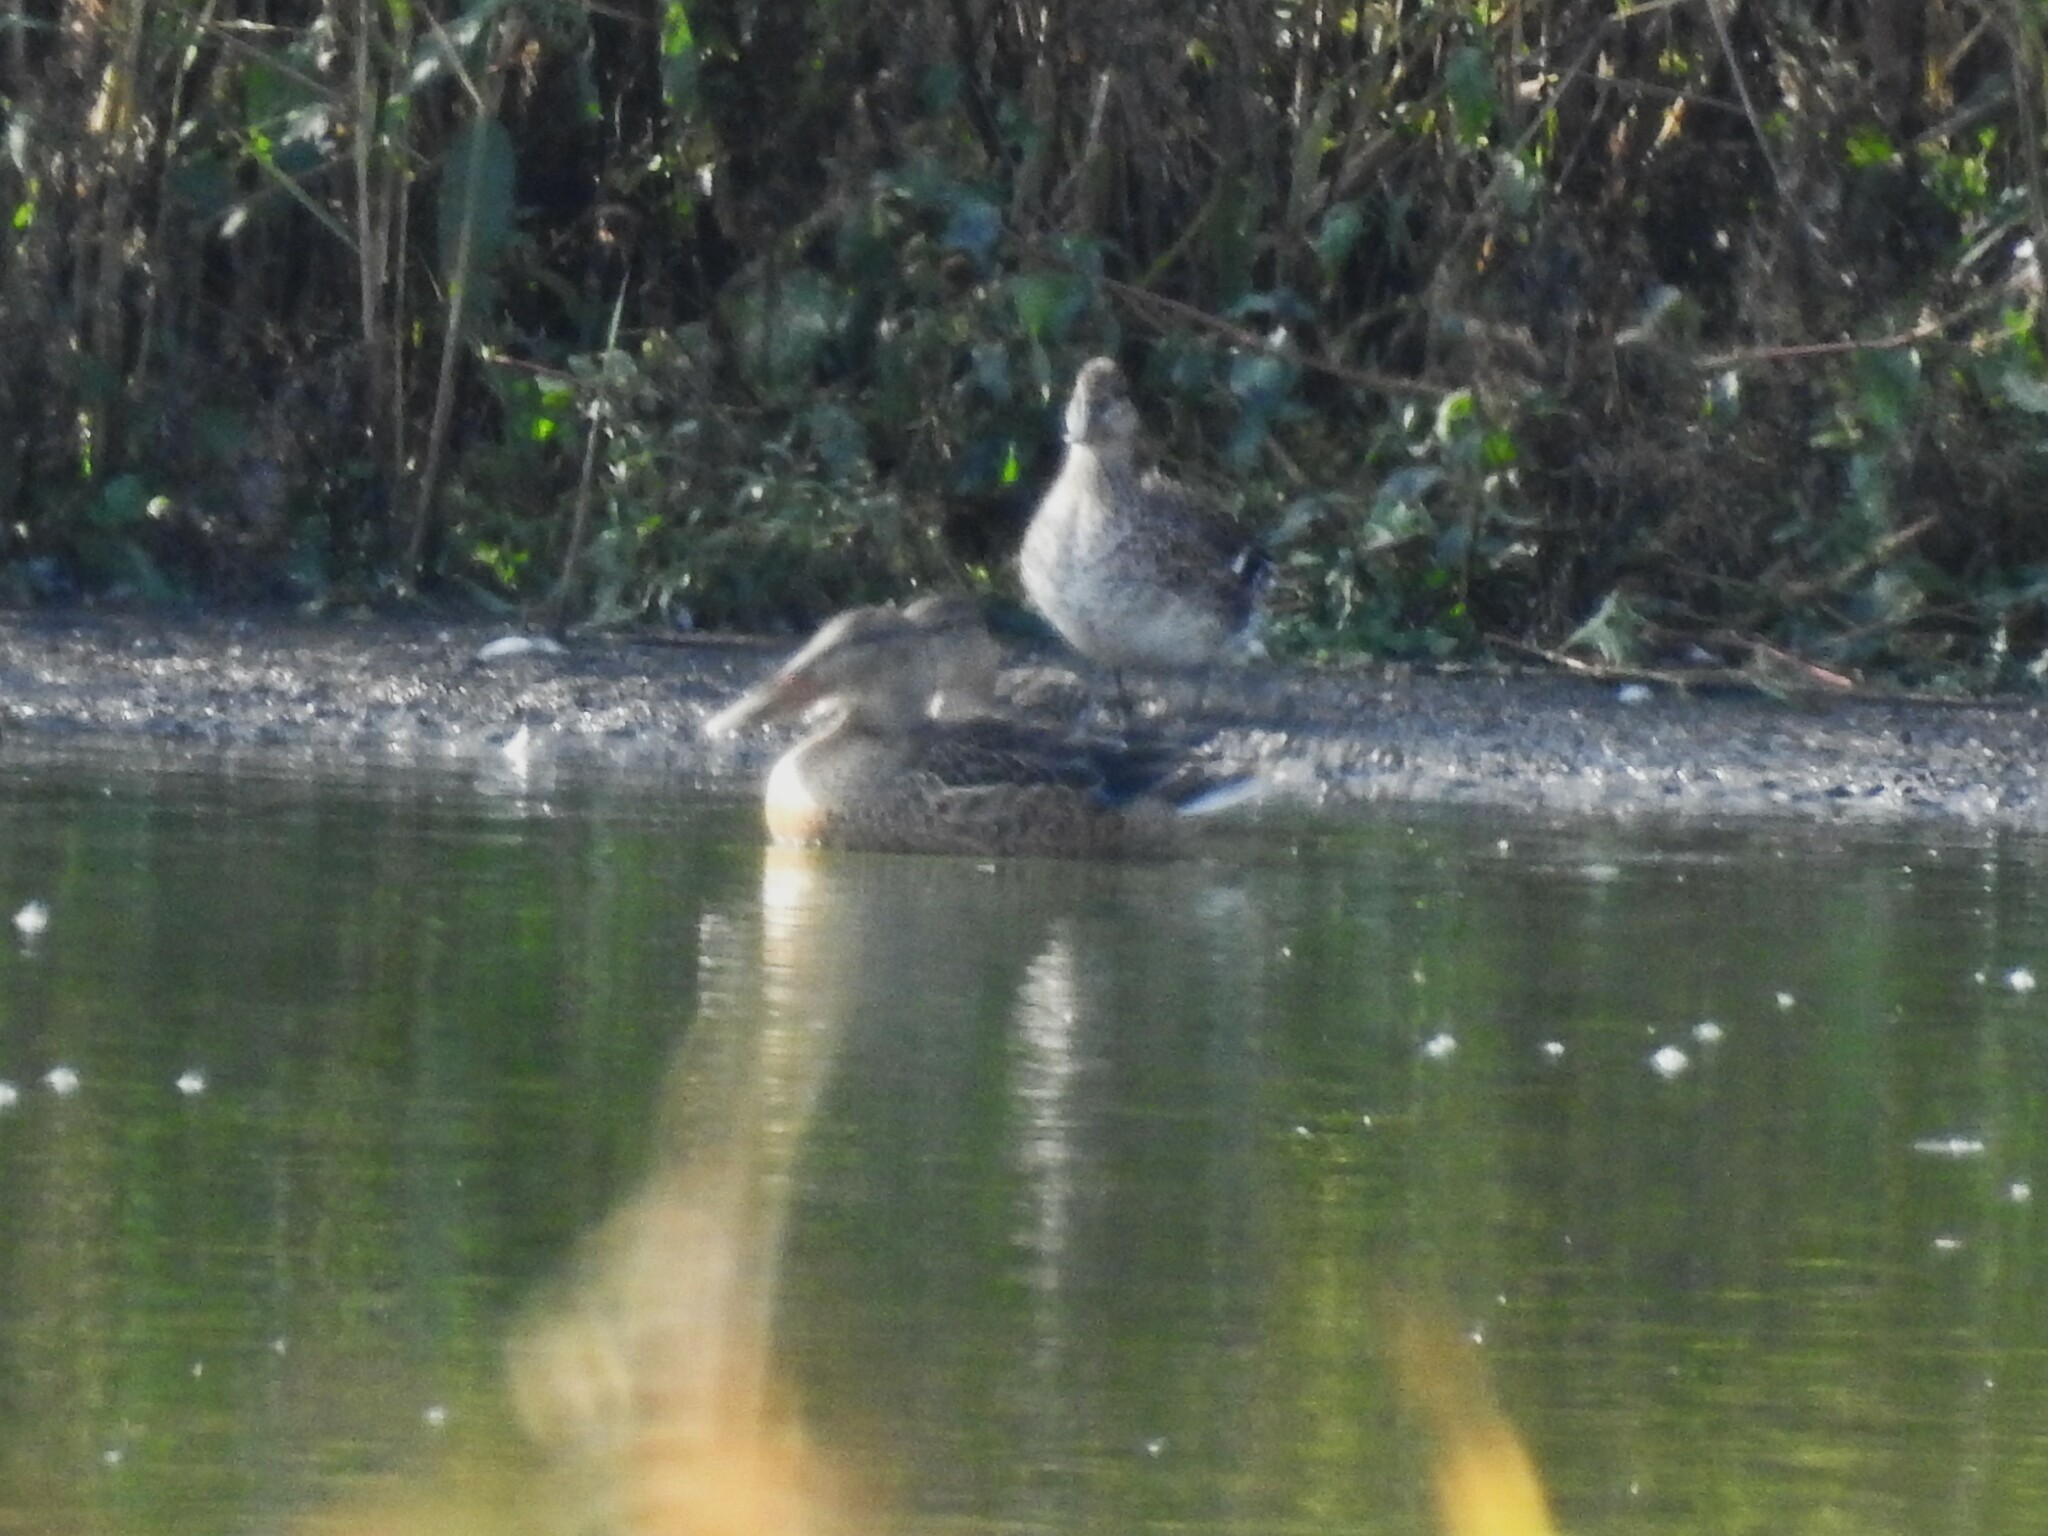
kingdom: Animalia
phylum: Chordata
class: Aves
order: Anseriformes
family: Anatidae
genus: Spatula
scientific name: Spatula clypeata
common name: Northern shoveler
